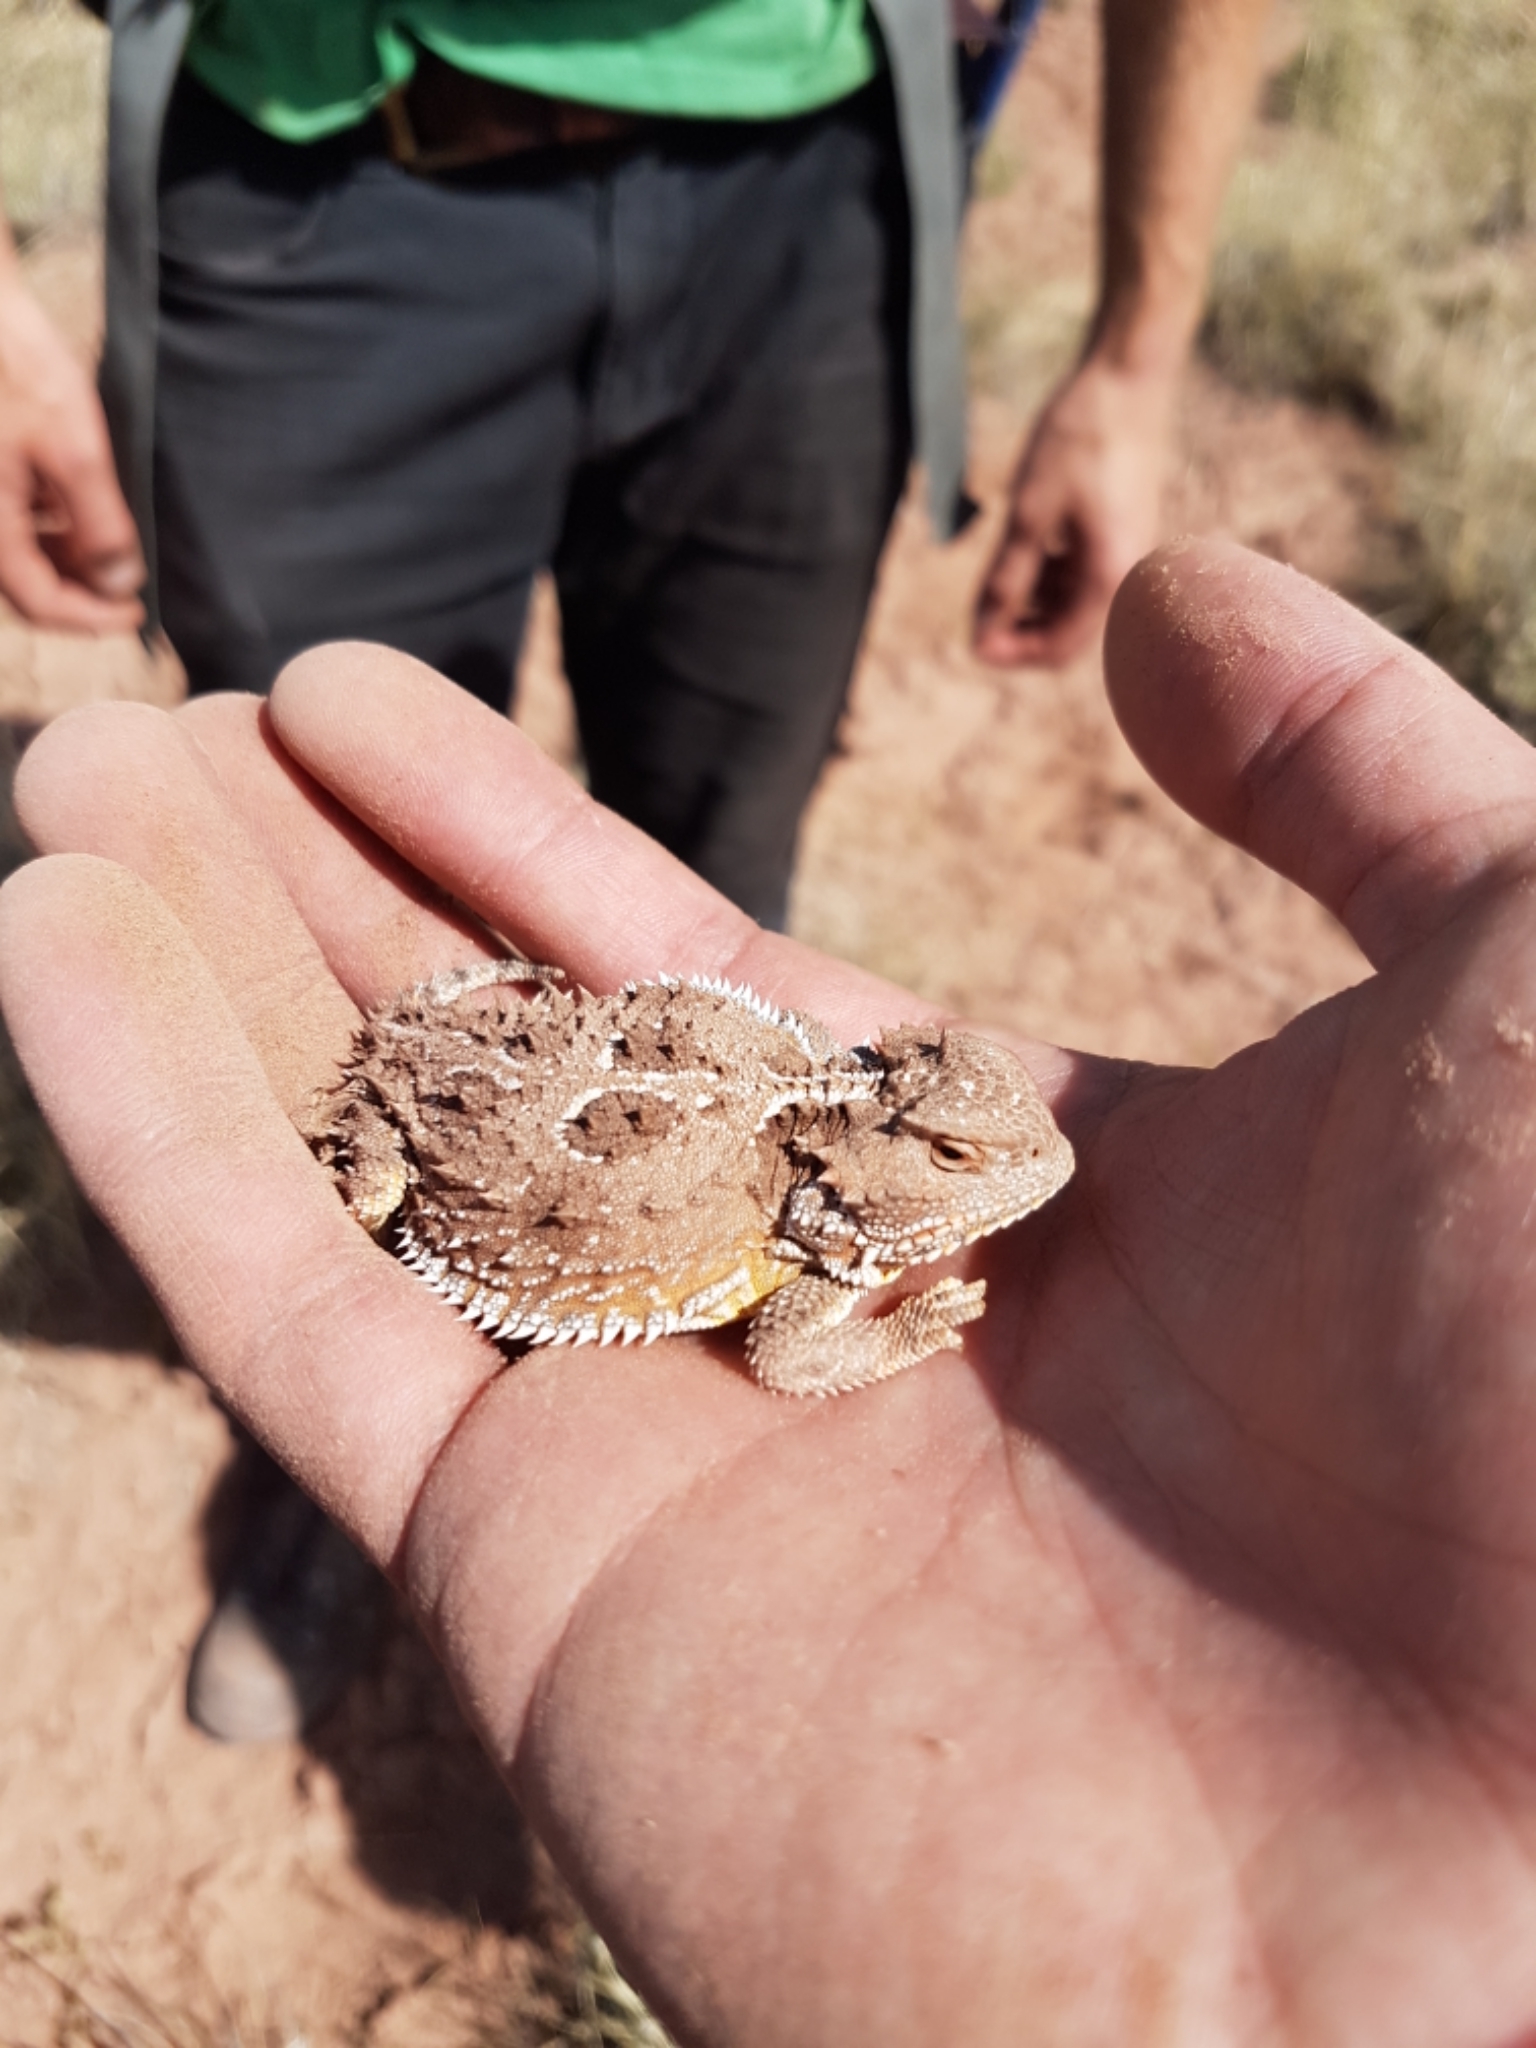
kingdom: Animalia
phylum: Chordata
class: Squamata
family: Phrynosomatidae
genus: Phrynosoma
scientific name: Phrynosoma hernandesi
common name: Greater short-horned lizard
